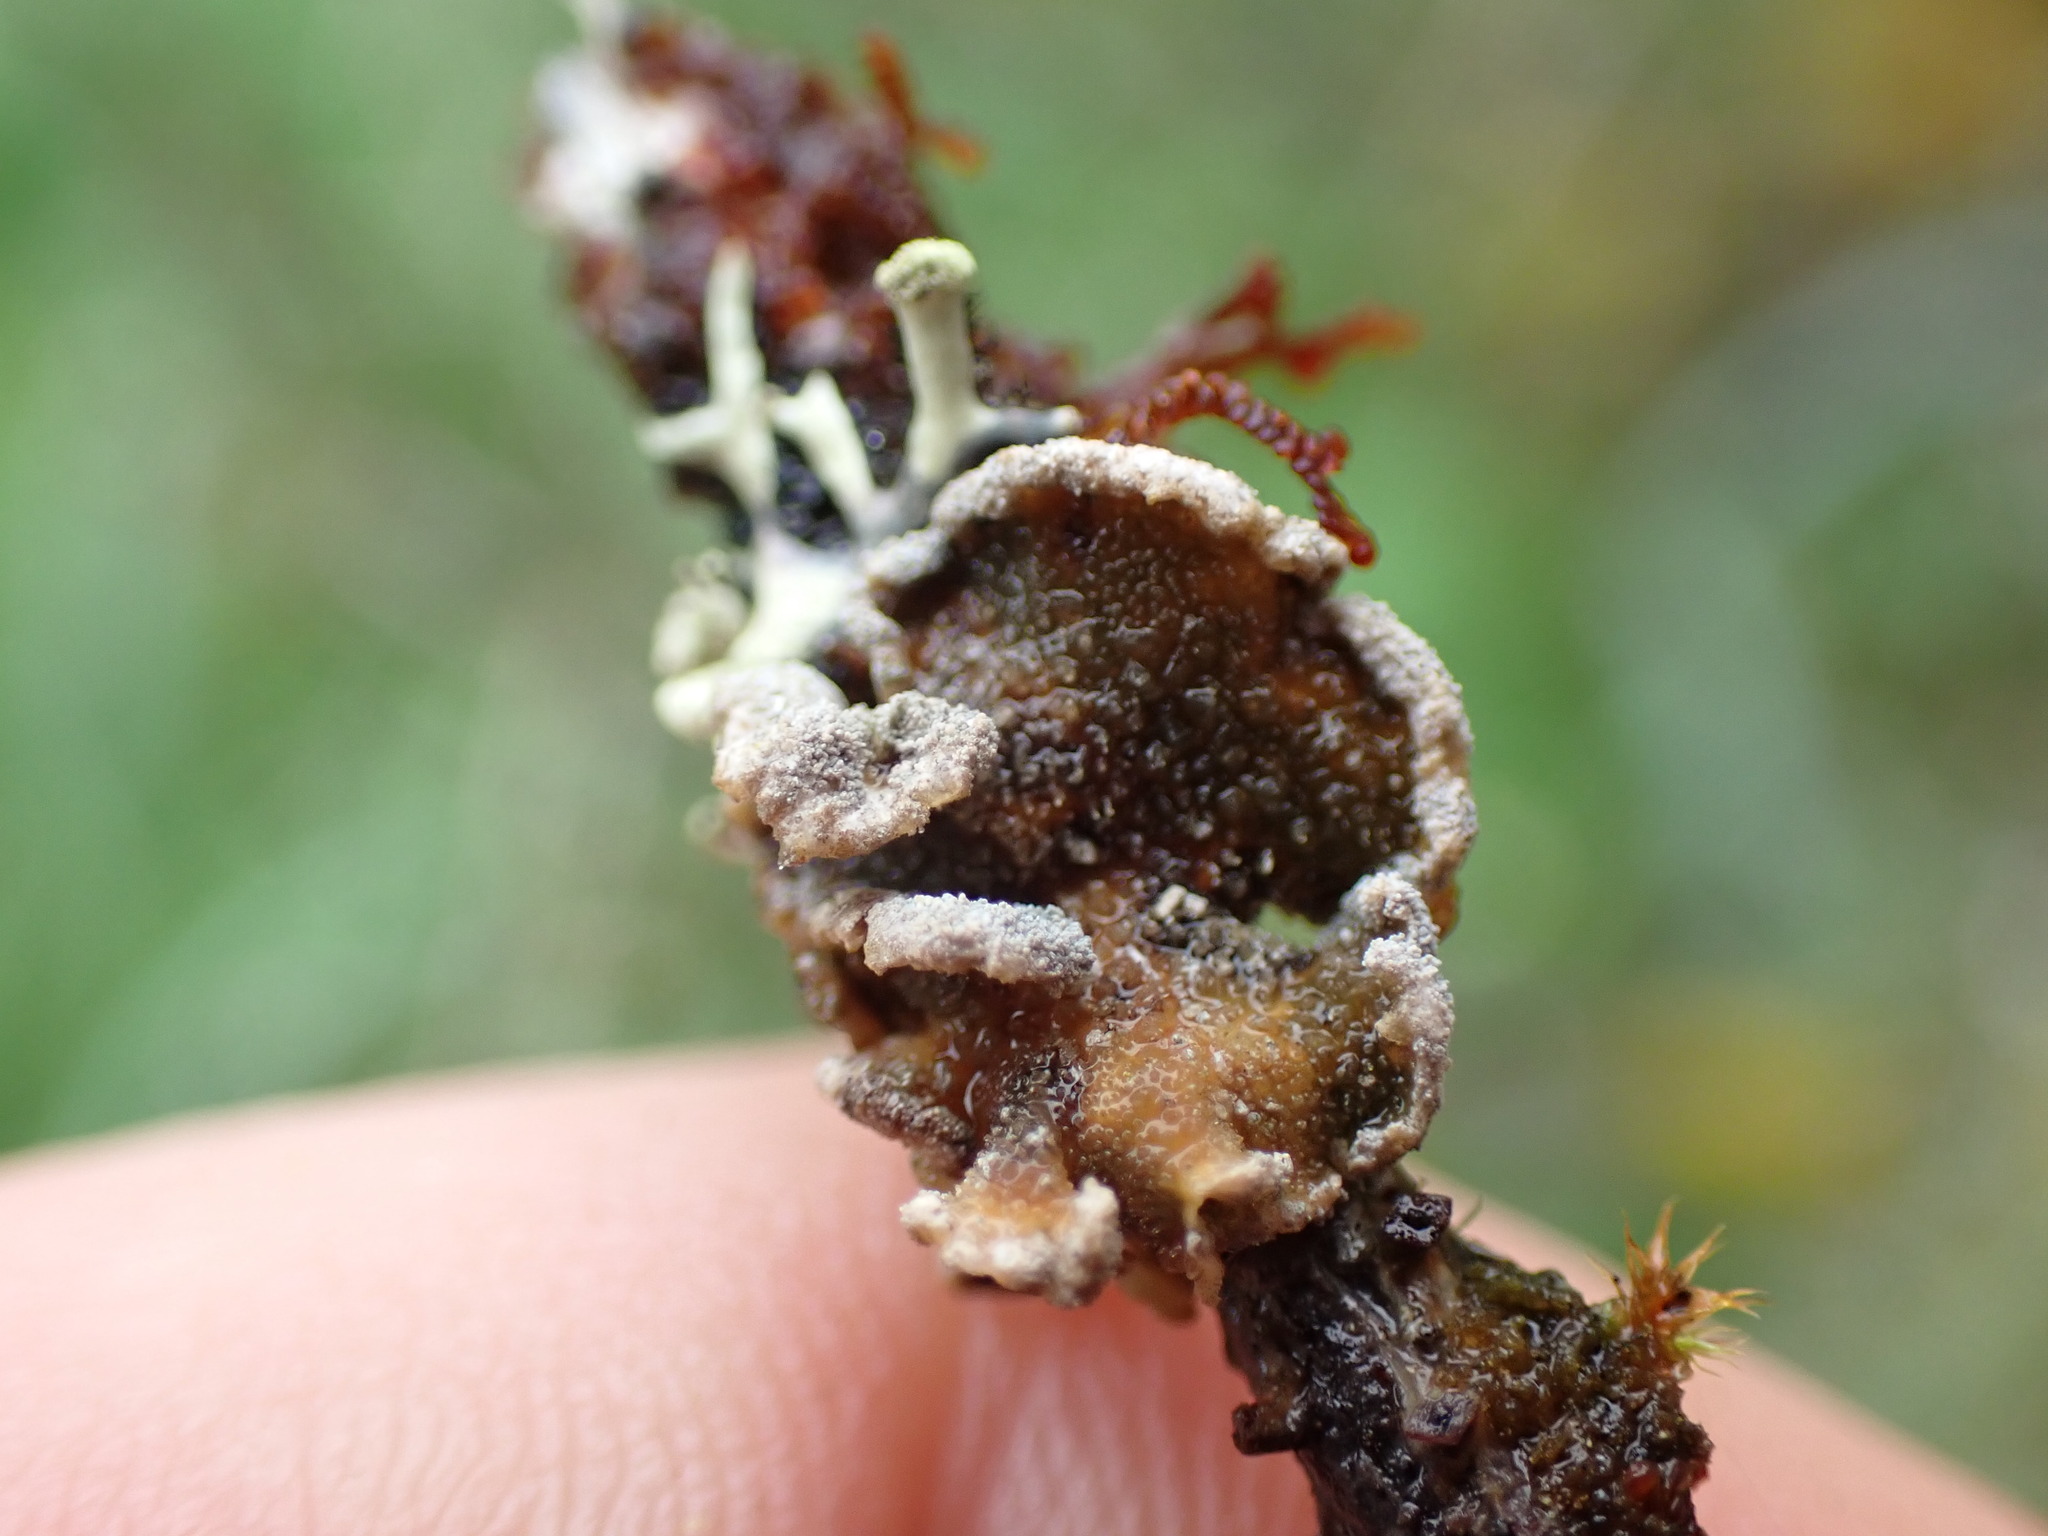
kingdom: Fungi
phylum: Ascomycota
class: Lecanoromycetes
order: Peltigerales
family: Pannariaceae
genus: Erioderma
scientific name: Erioderma sorediatum
